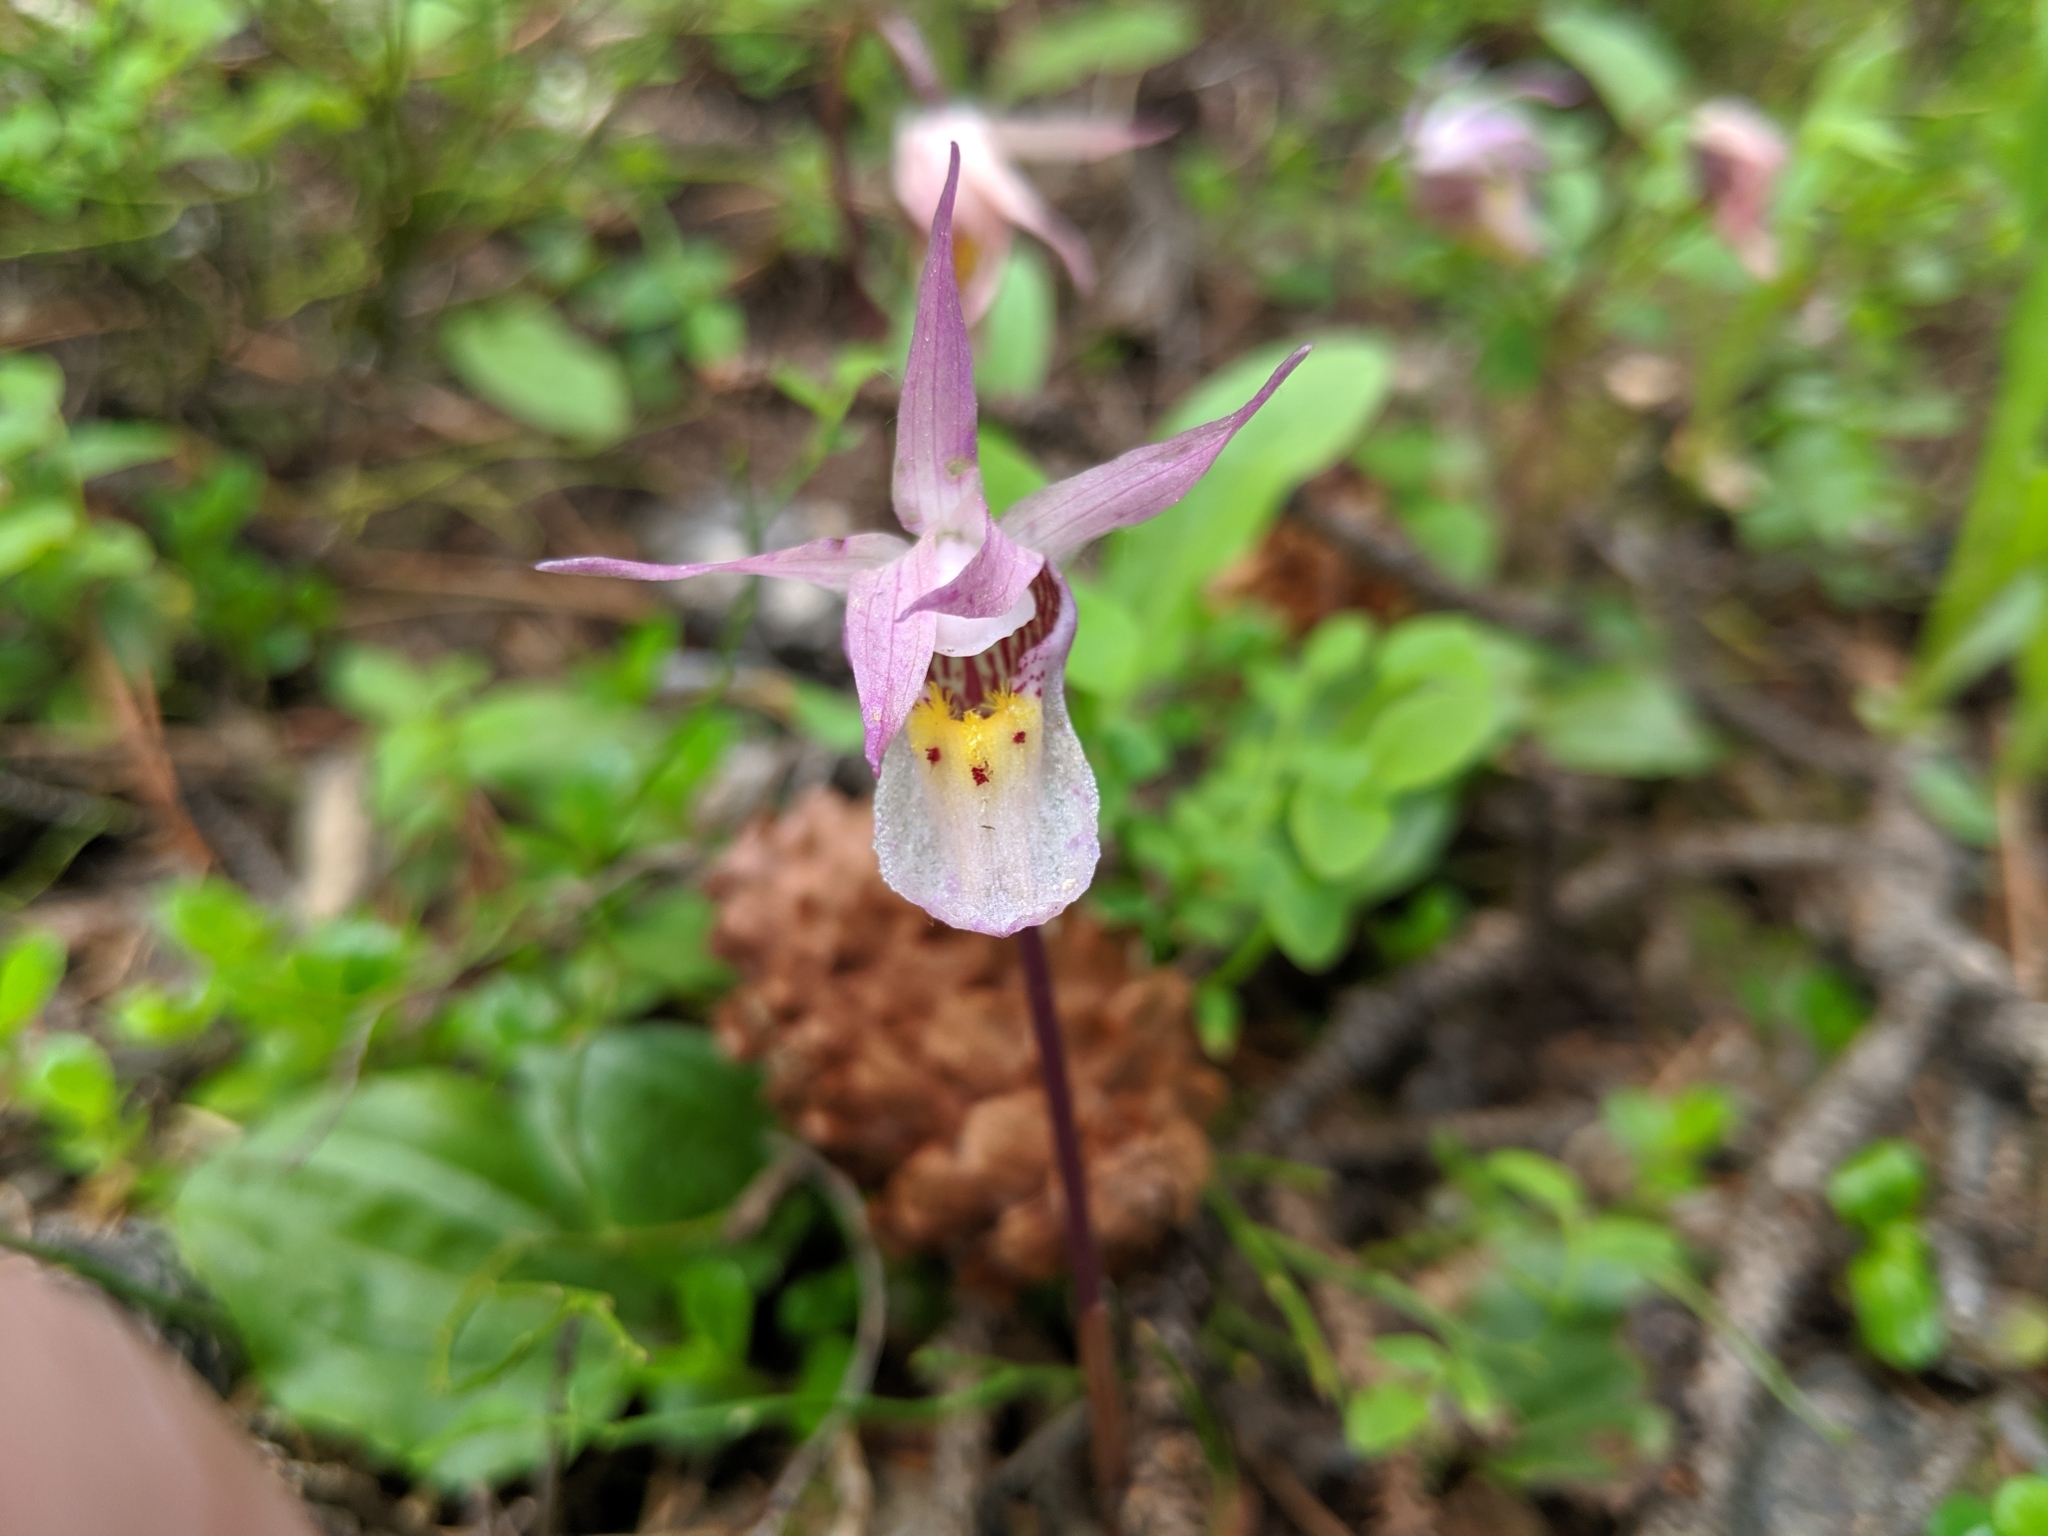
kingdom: Plantae
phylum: Tracheophyta
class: Liliopsida
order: Asparagales
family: Orchidaceae
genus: Calypso
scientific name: Calypso bulbosa
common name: Calypso
